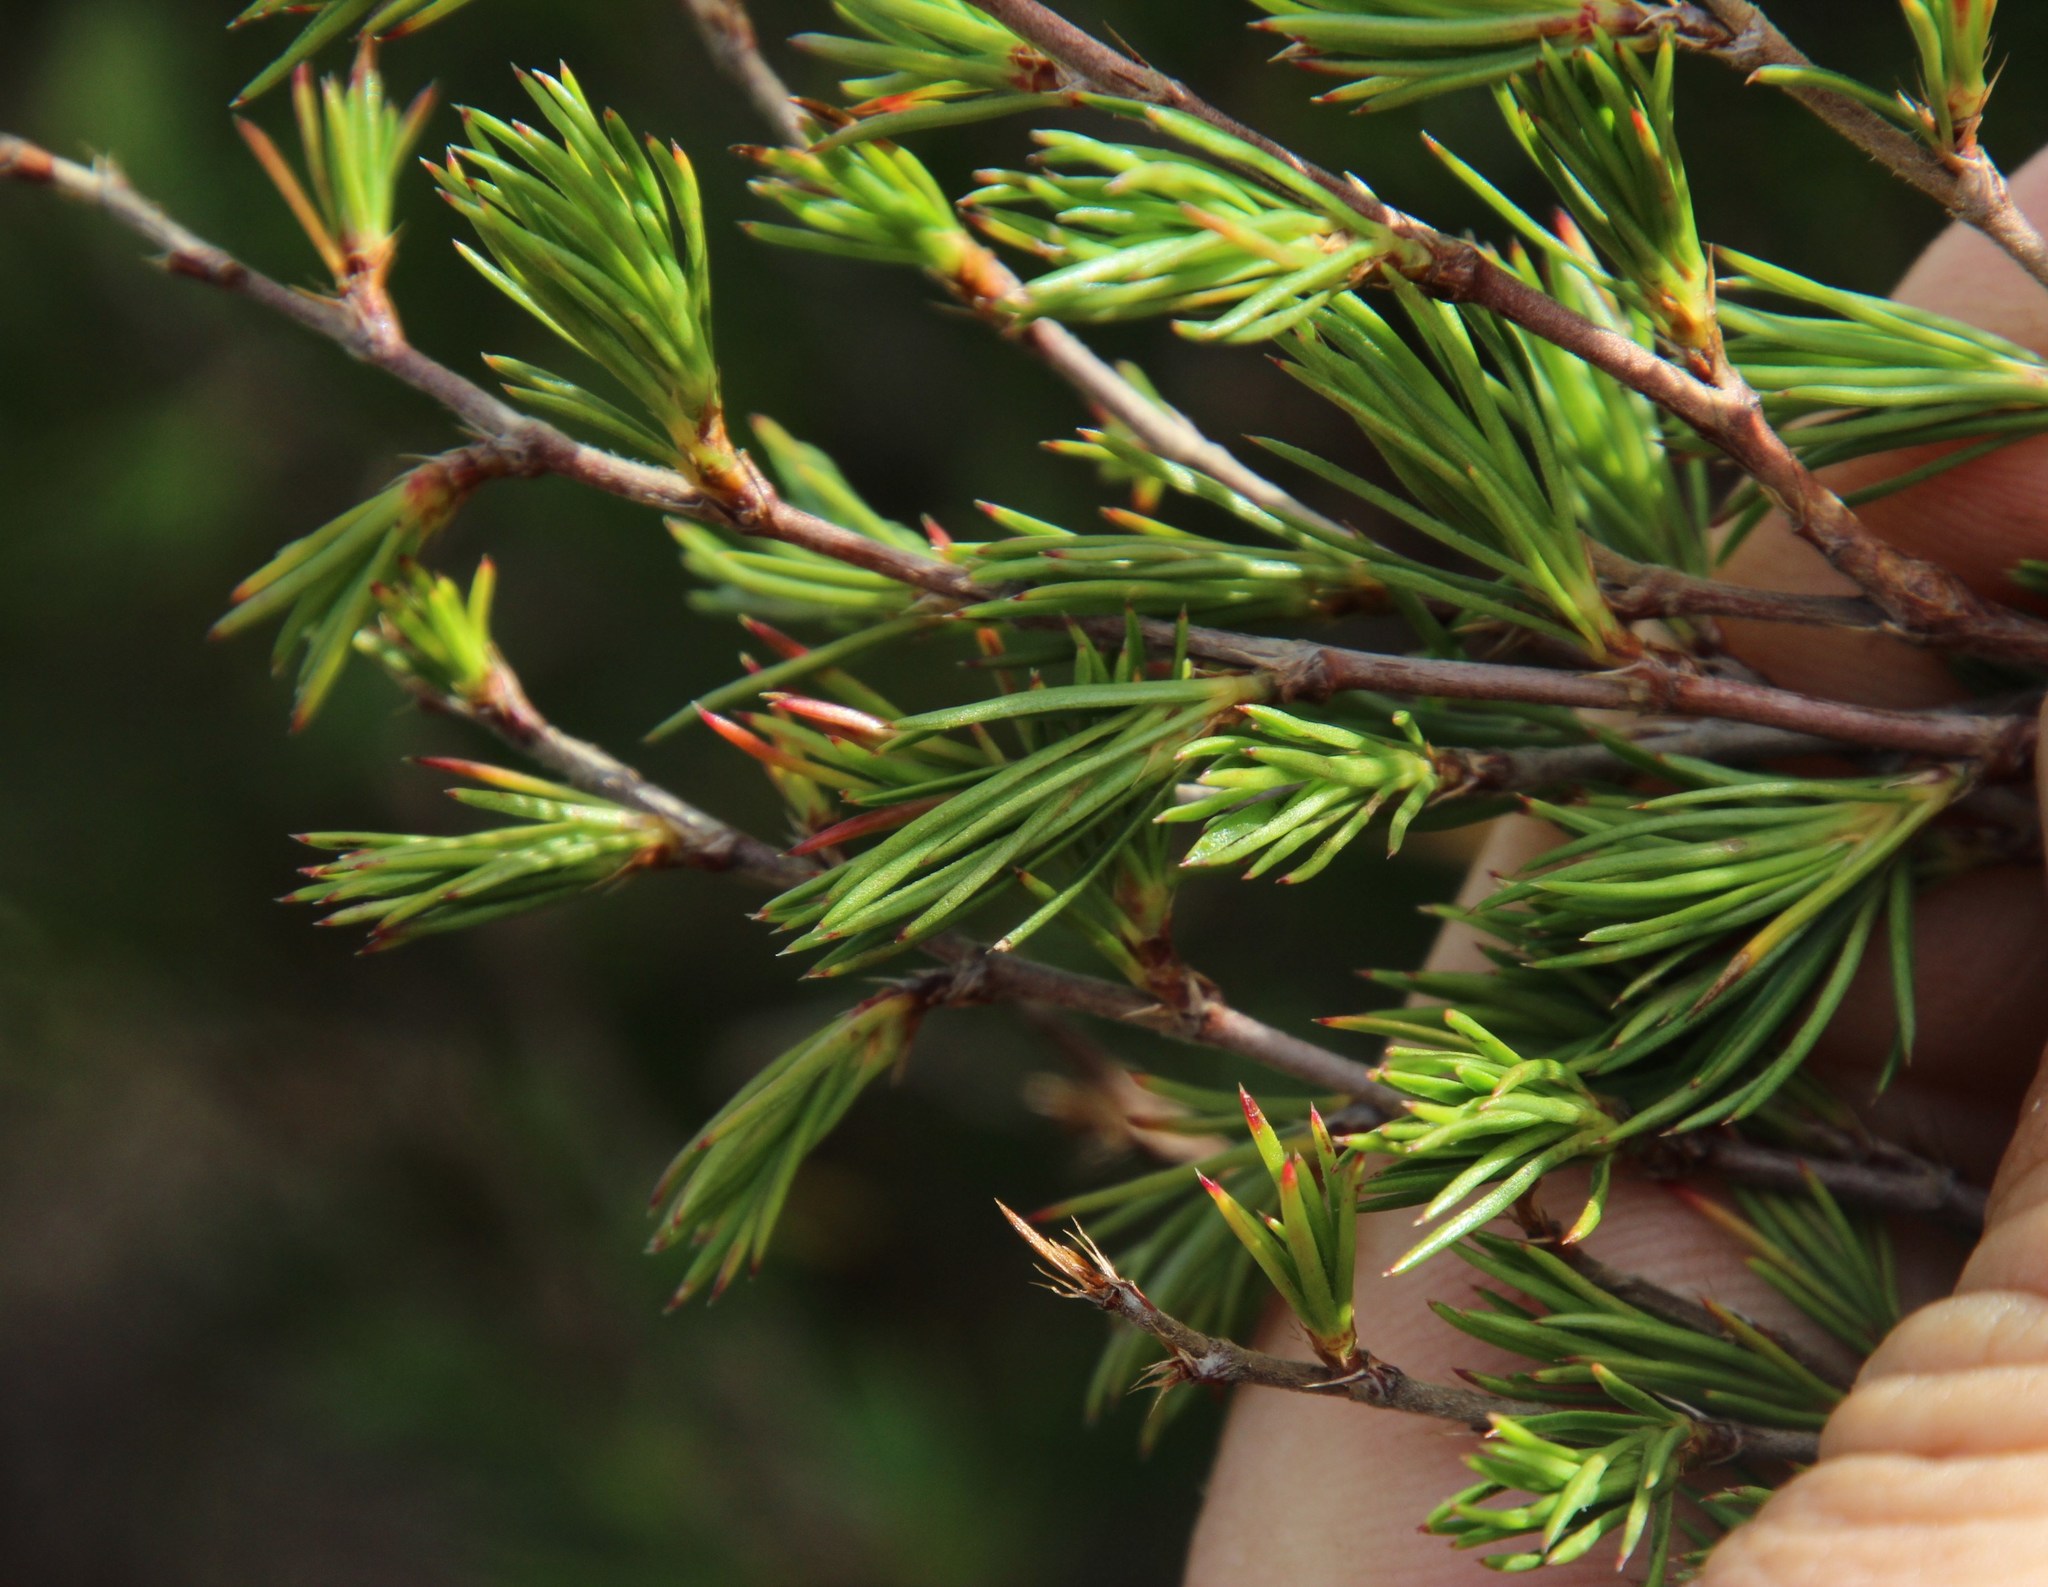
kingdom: Plantae
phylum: Tracheophyta
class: Magnoliopsida
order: Rosales
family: Rosaceae
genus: Cliffortia
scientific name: Cliffortia atrata
